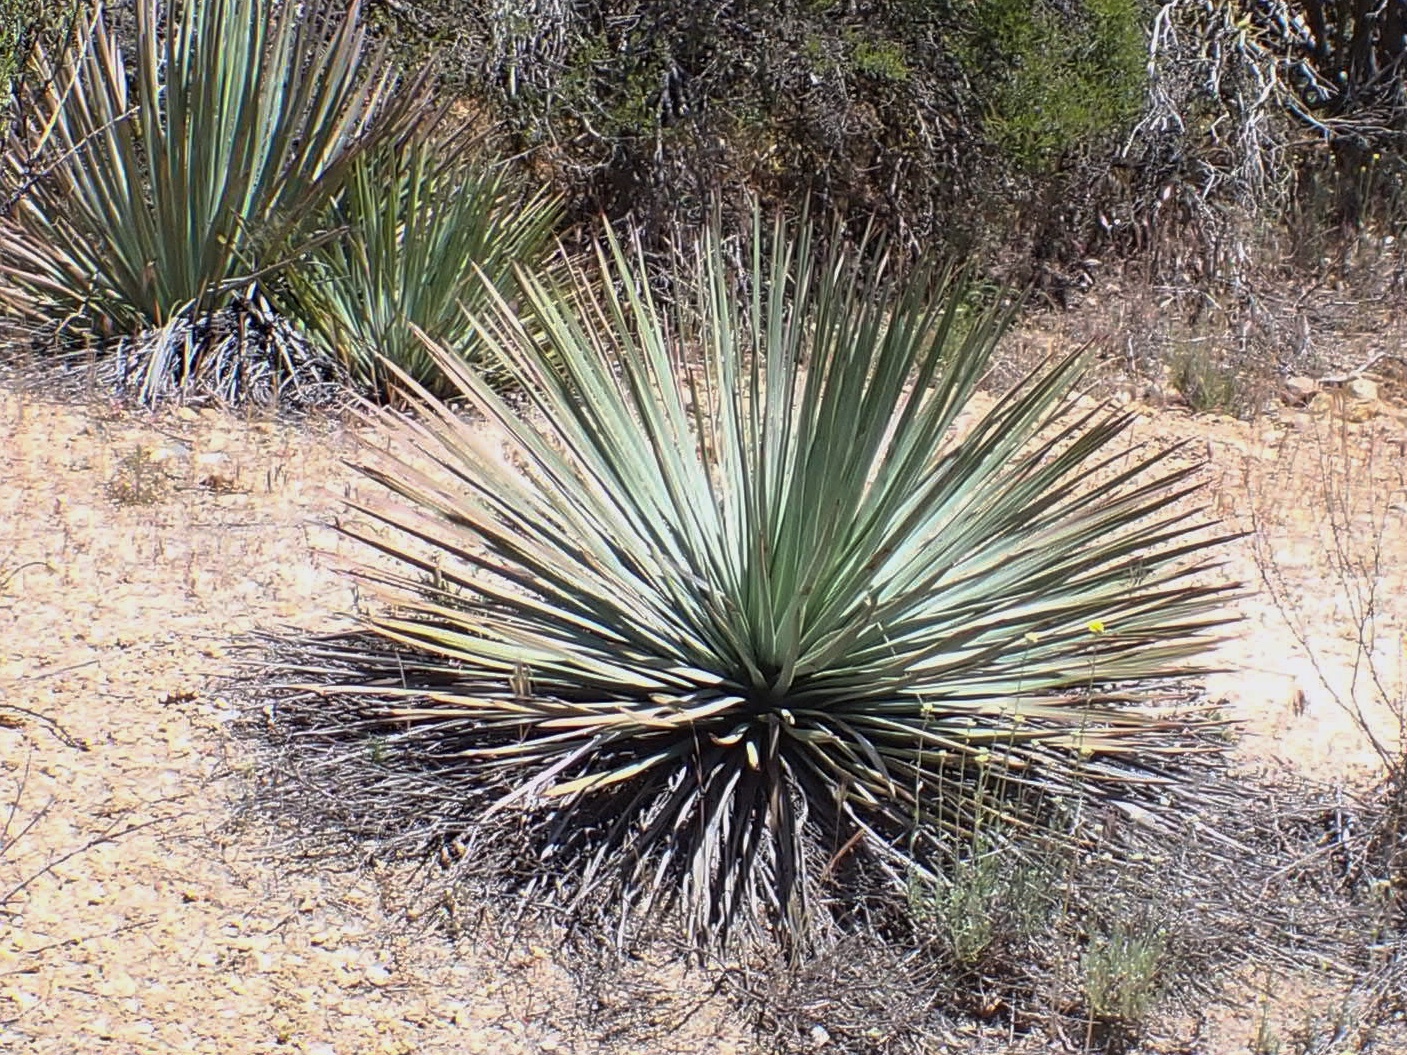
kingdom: Plantae
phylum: Tracheophyta
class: Liliopsida
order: Asparagales
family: Asparagaceae
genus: Hesperoyucca
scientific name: Hesperoyucca whipplei
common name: Our lord's-candle
